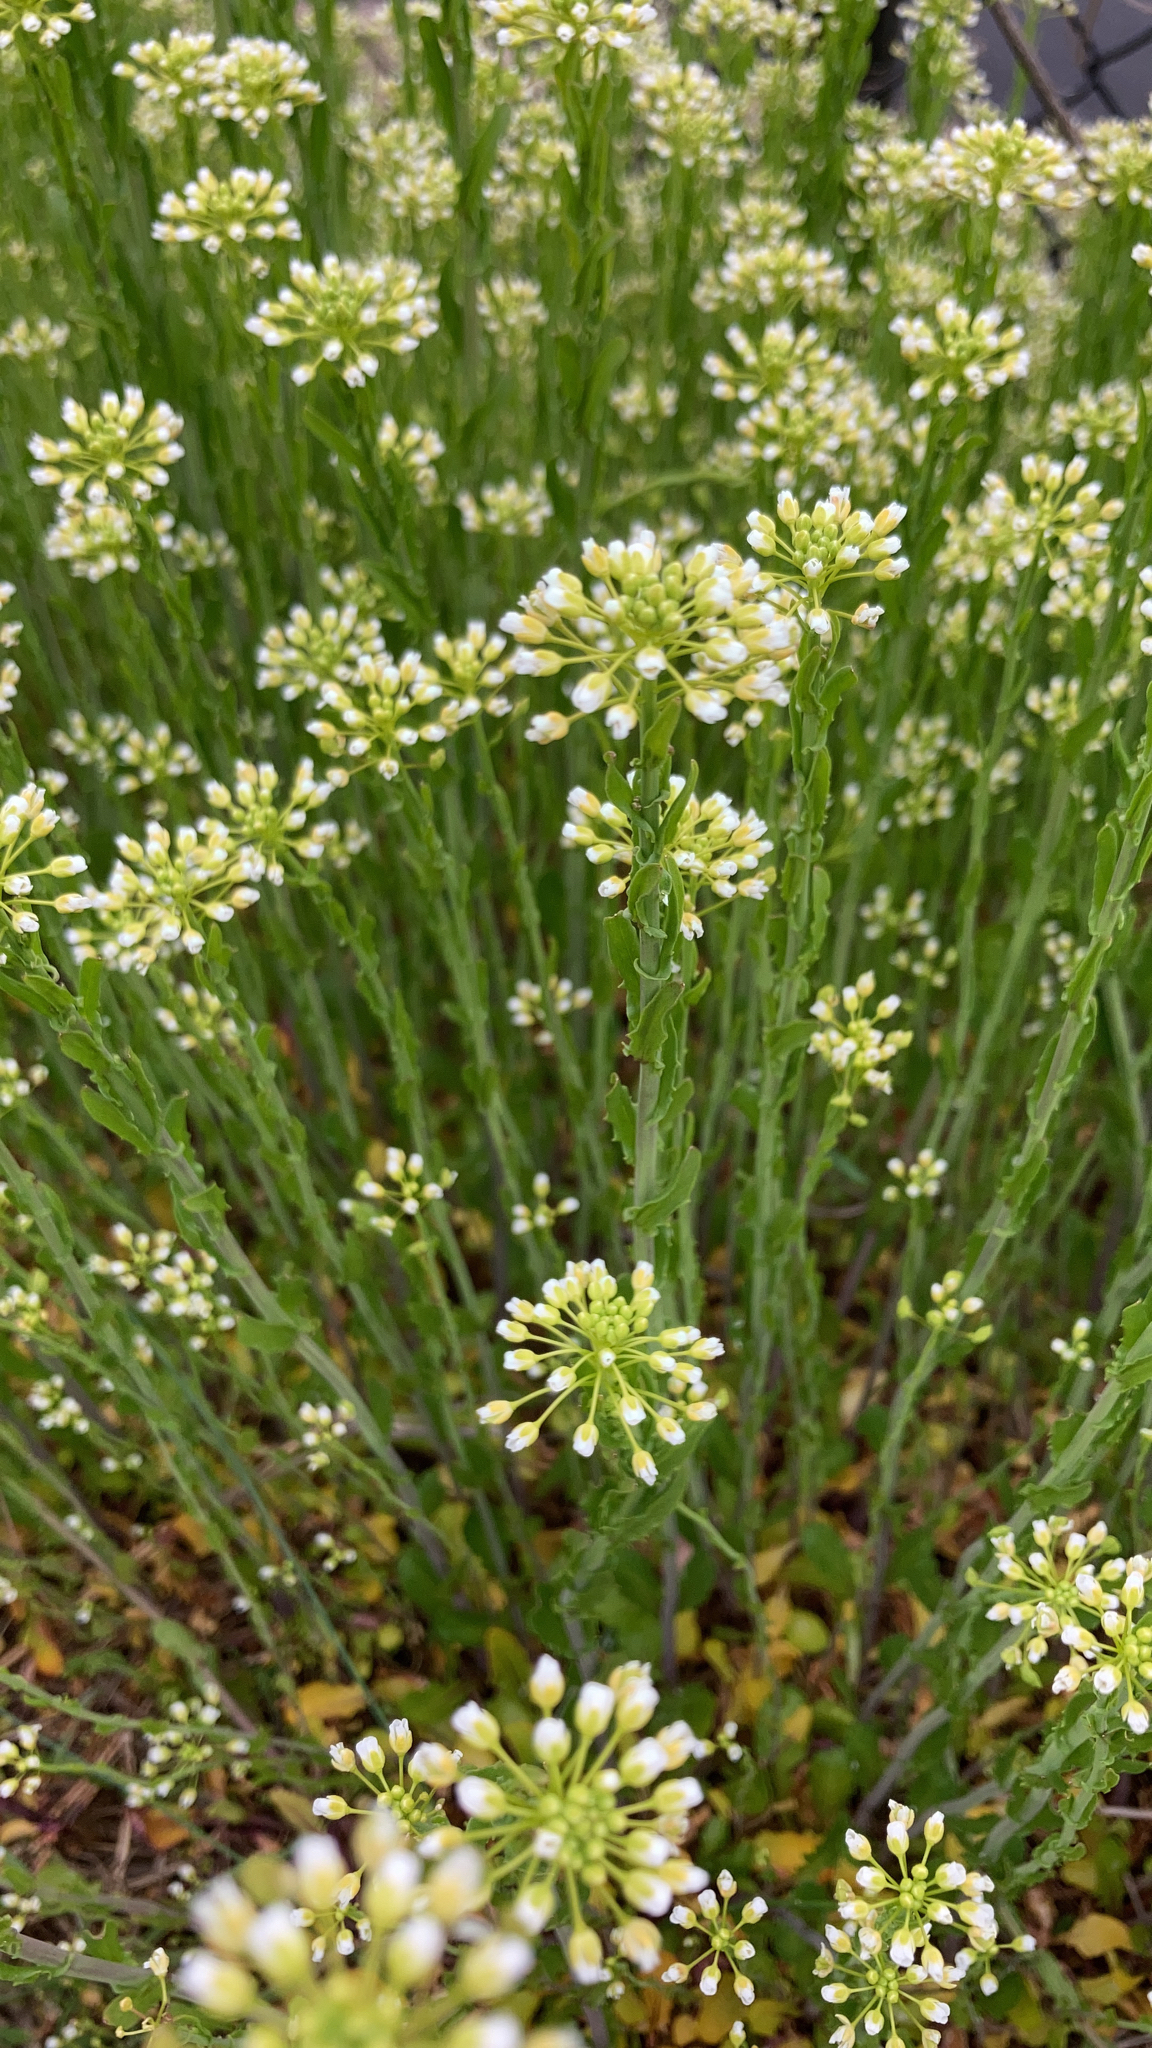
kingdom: Plantae
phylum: Tracheophyta
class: Magnoliopsida
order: Brassicales
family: Brassicaceae
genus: Mummenhoffia
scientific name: Mummenhoffia alliacea
